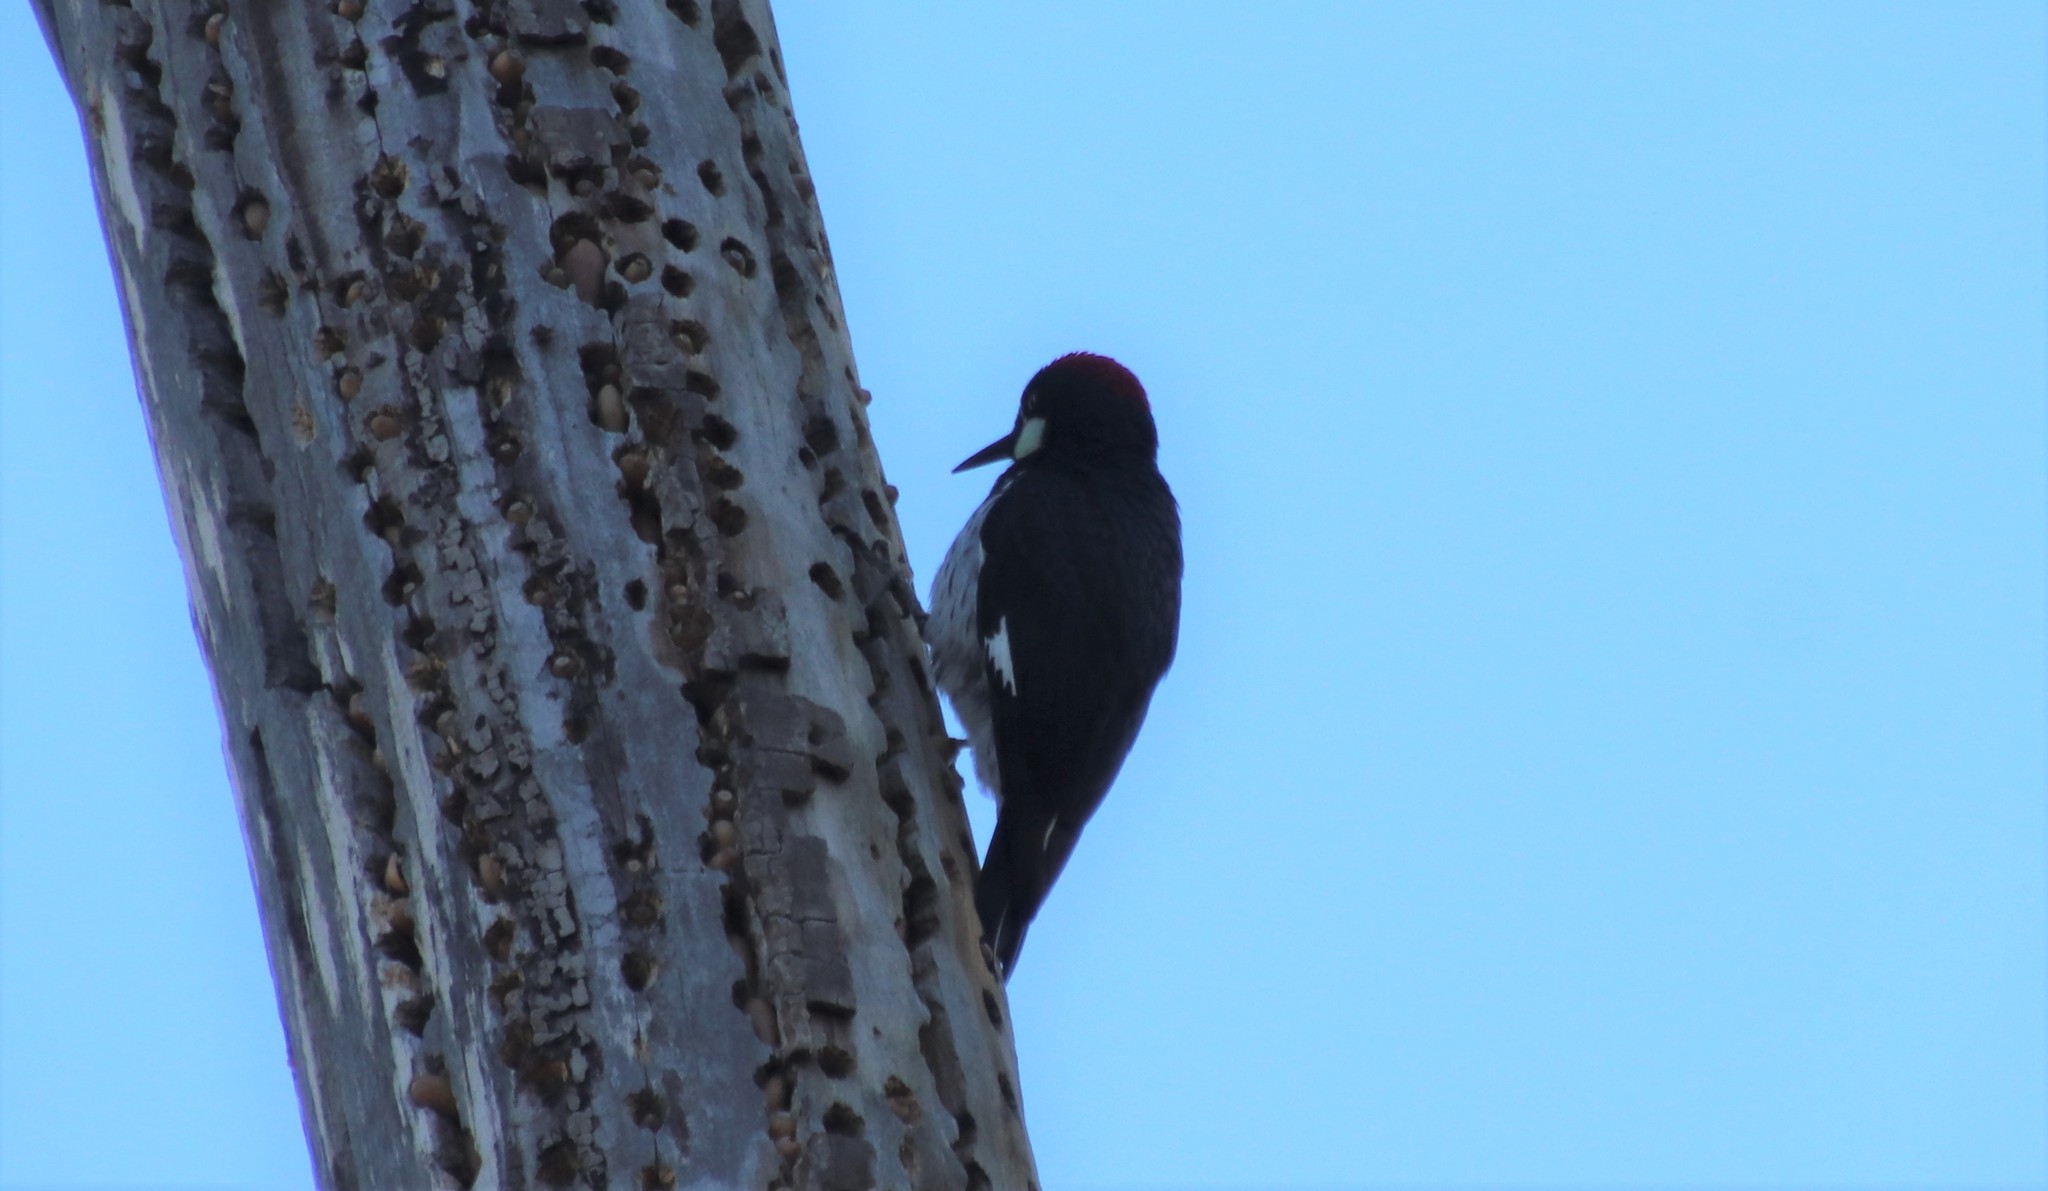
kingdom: Animalia
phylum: Chordata
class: Aves
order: Piciformes
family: Picidae
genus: Melanerpes
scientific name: Melanerpes formicivorus
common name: Acorn woodpecker
